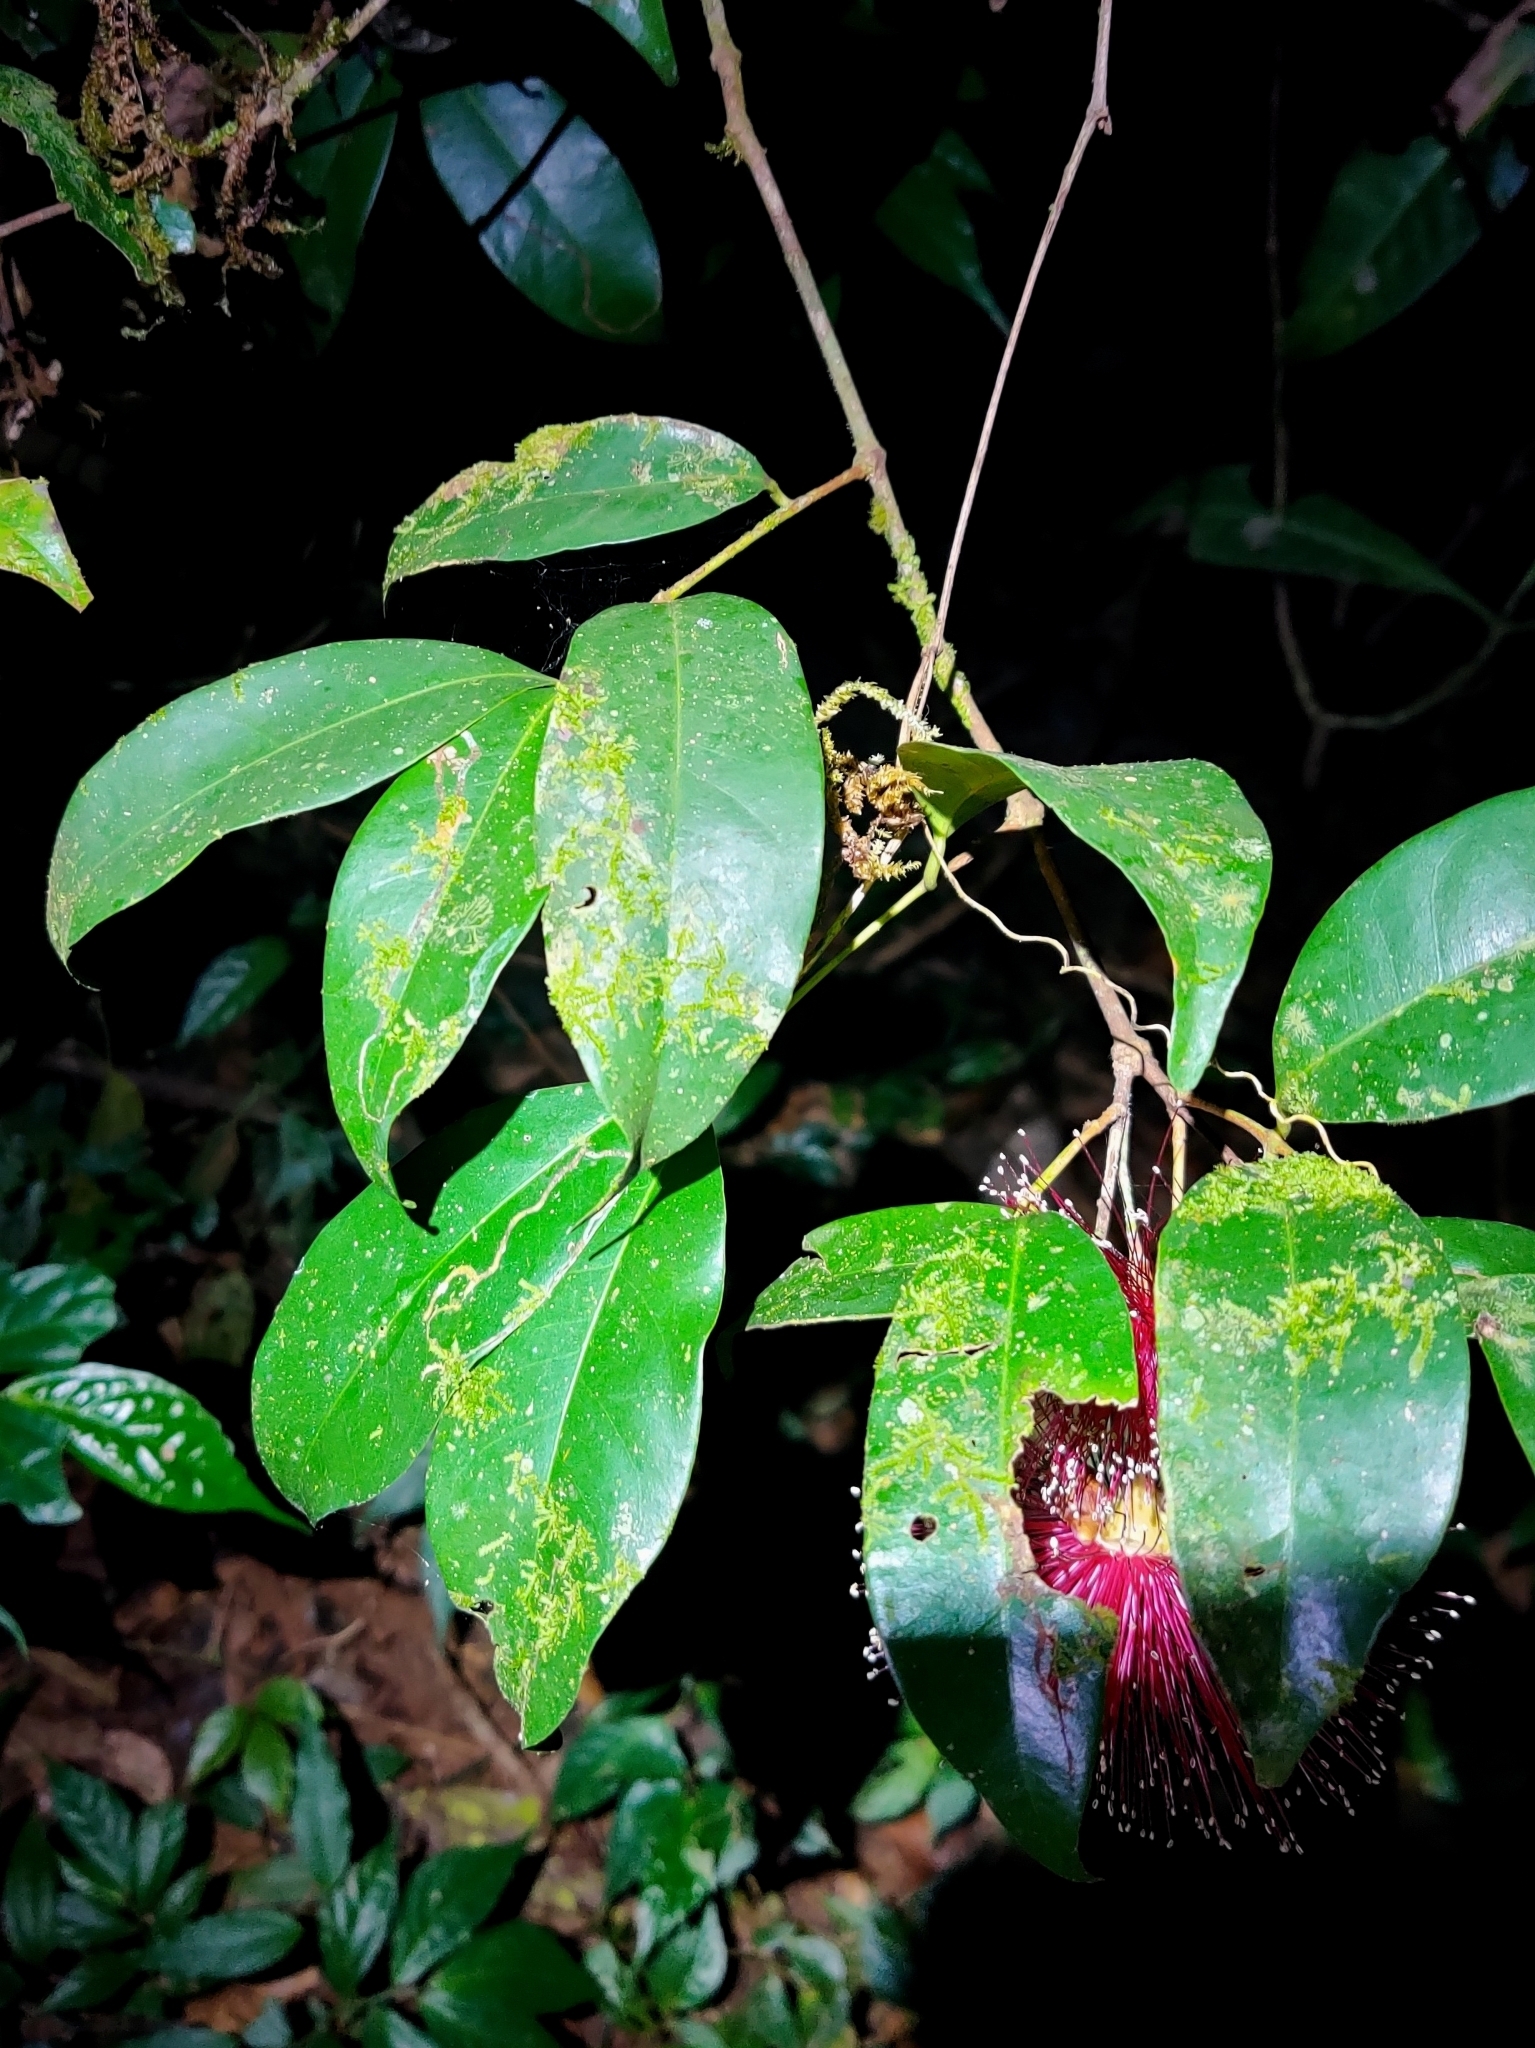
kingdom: Plantae
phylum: Tracheophyta
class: Magnoliopsida
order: Myrtales
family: Myrtaceae
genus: Syzygium
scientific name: Syzygium laetum
